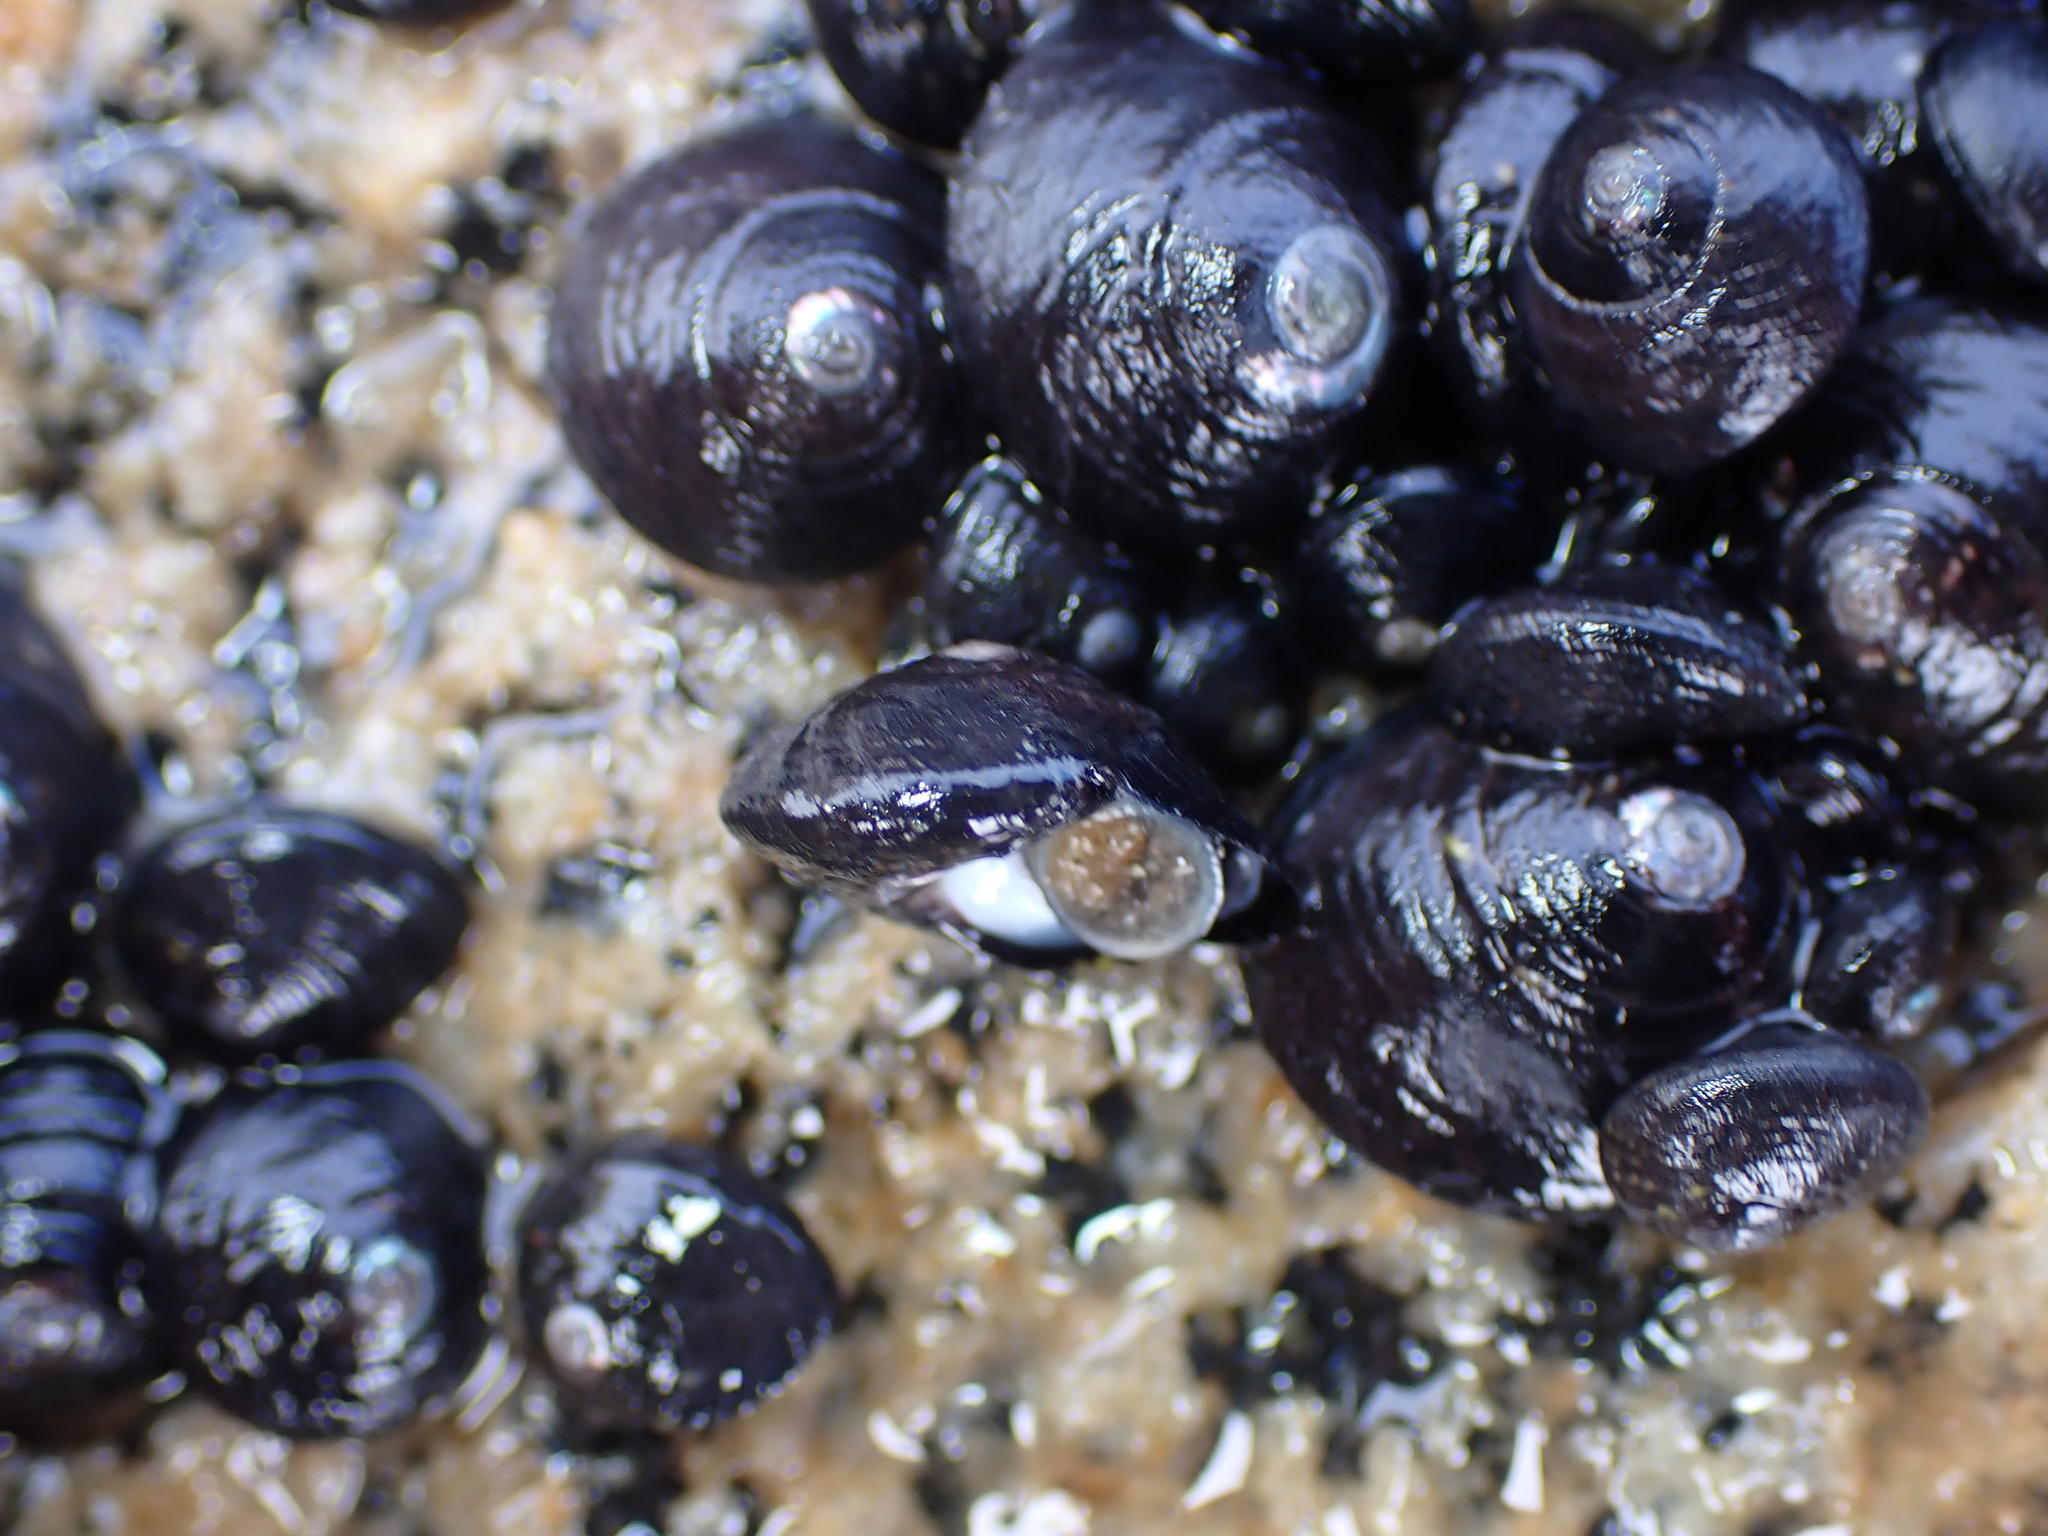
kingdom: Animalia
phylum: Mollusca
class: Gastropoda
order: Trochida
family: Trochidae
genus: Diloma
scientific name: Diloma aridum
